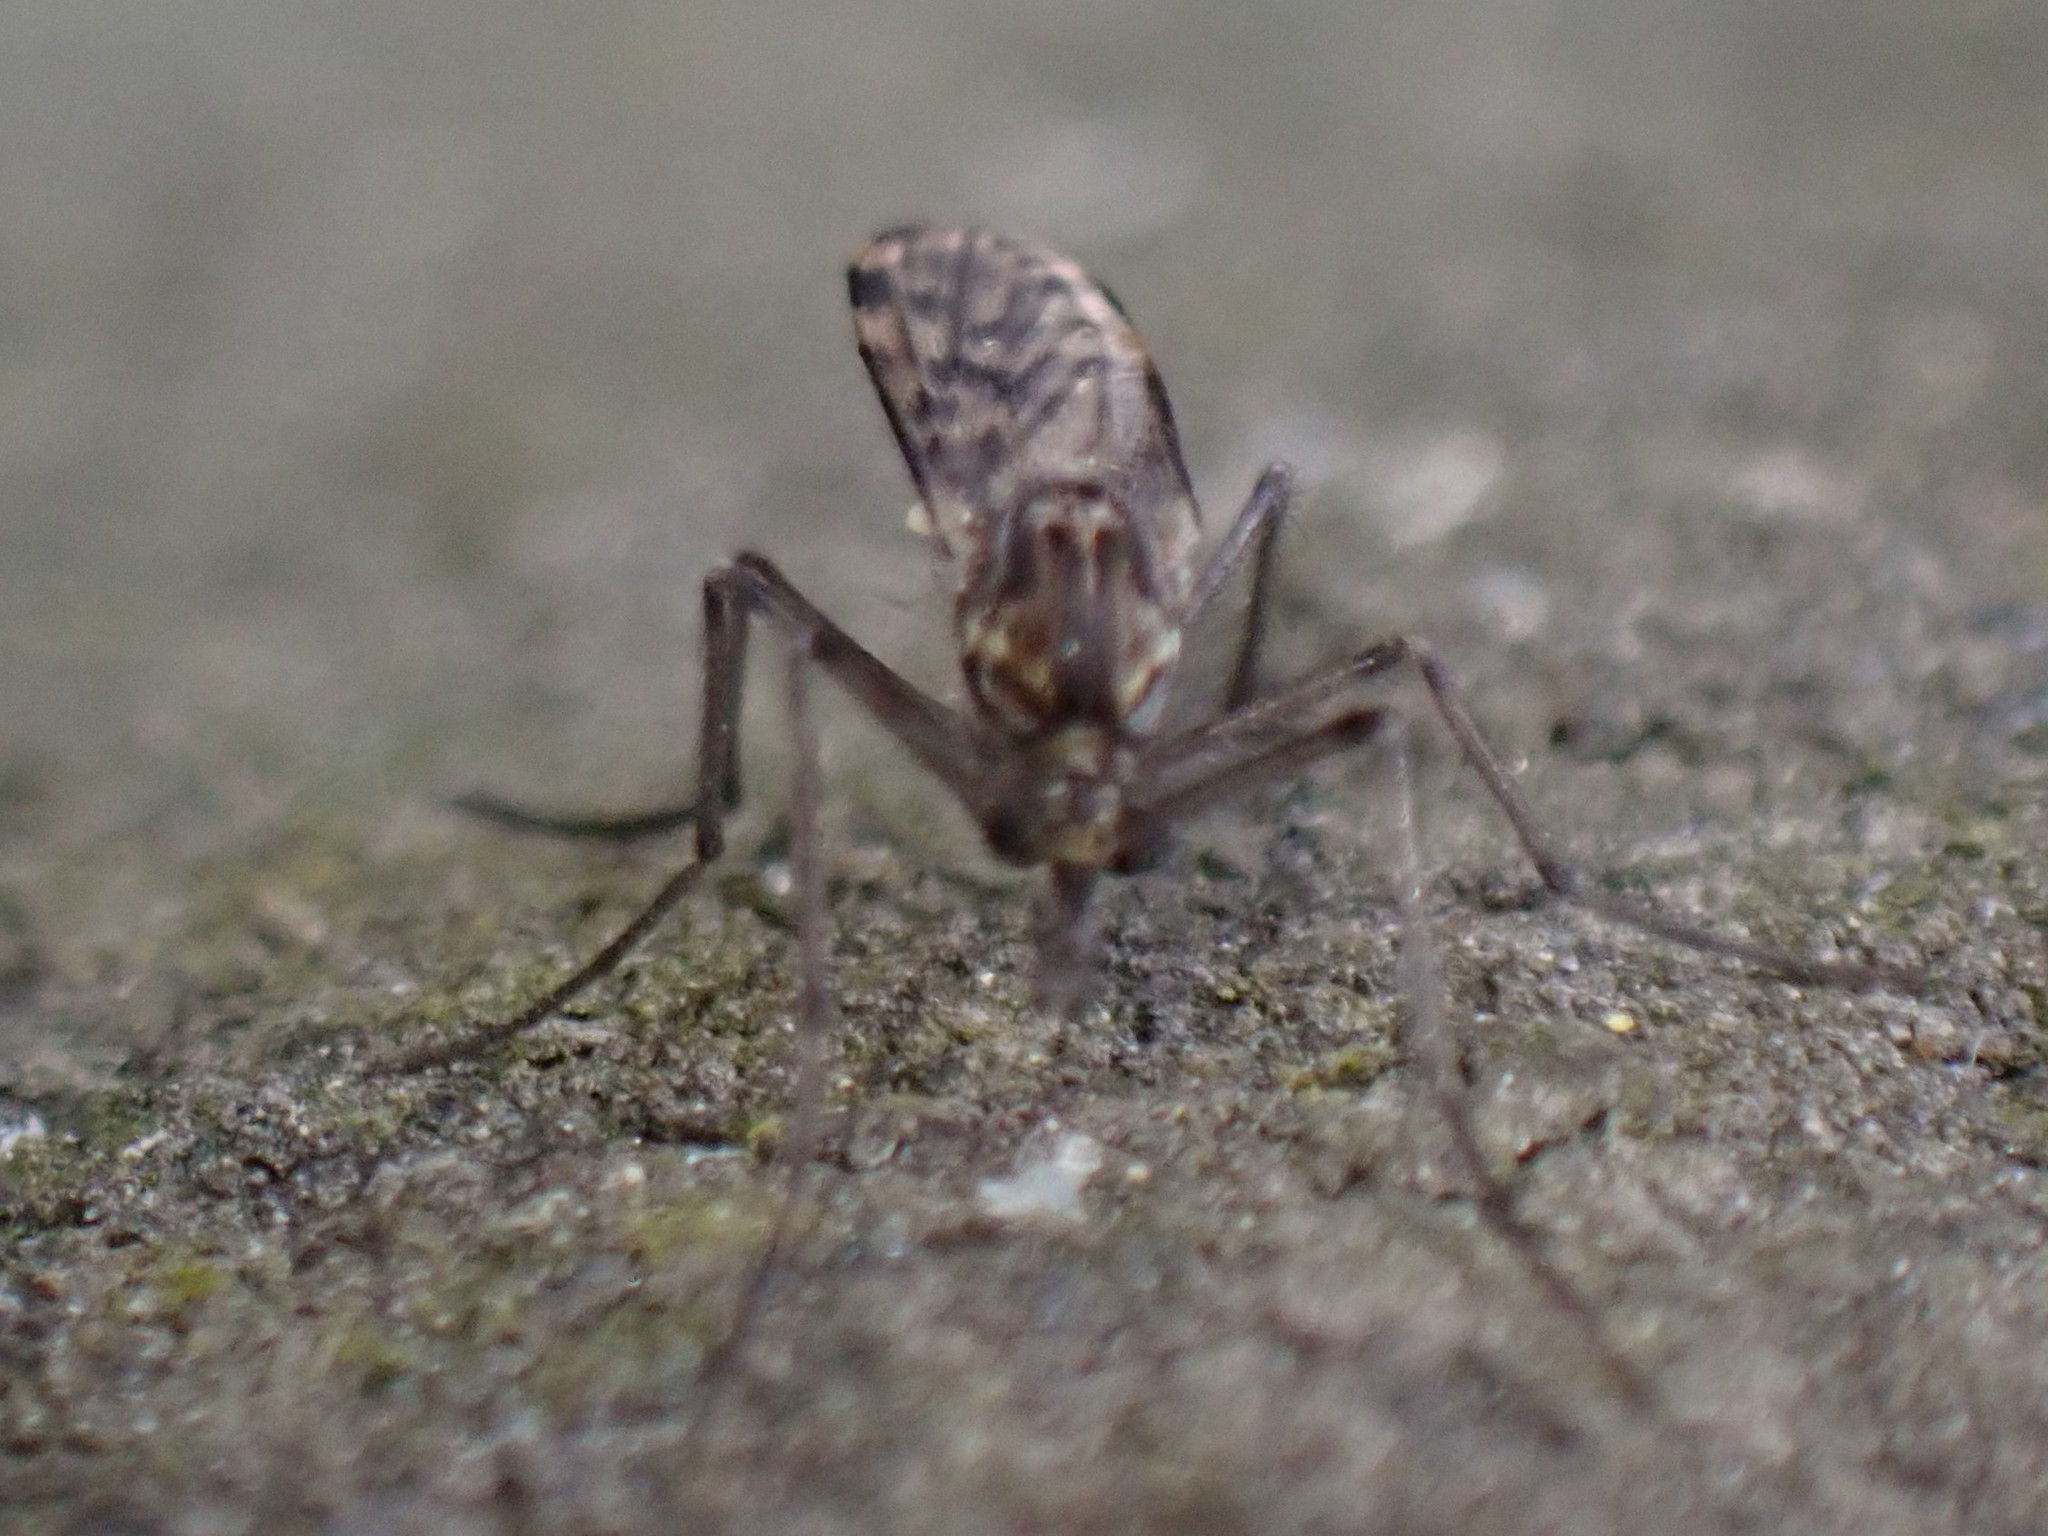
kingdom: Animalia
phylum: Arthropoda
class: Insecta
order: Diptera
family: Chaoboridae
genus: Chaoborus
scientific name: Chaoborus trivittatus
